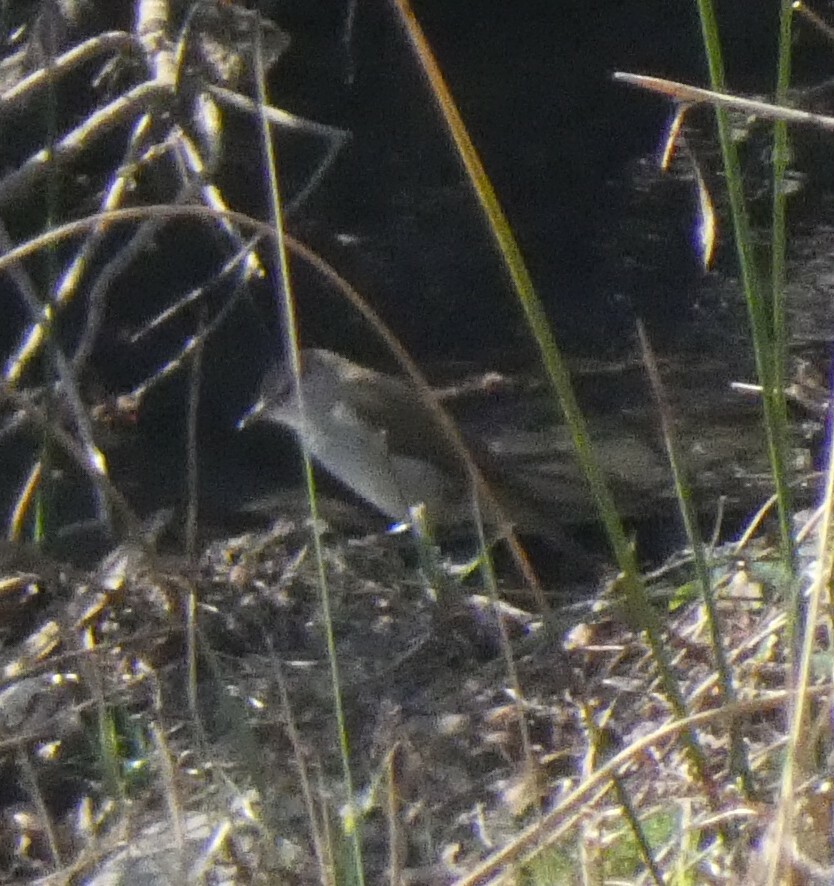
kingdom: Animalia
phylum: Chordata
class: Aves
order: Passeriformes
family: Acrocephalidae
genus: Acrocephalus
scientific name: Acrocephalus gracilirostris
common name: Lesser swamp warbler
